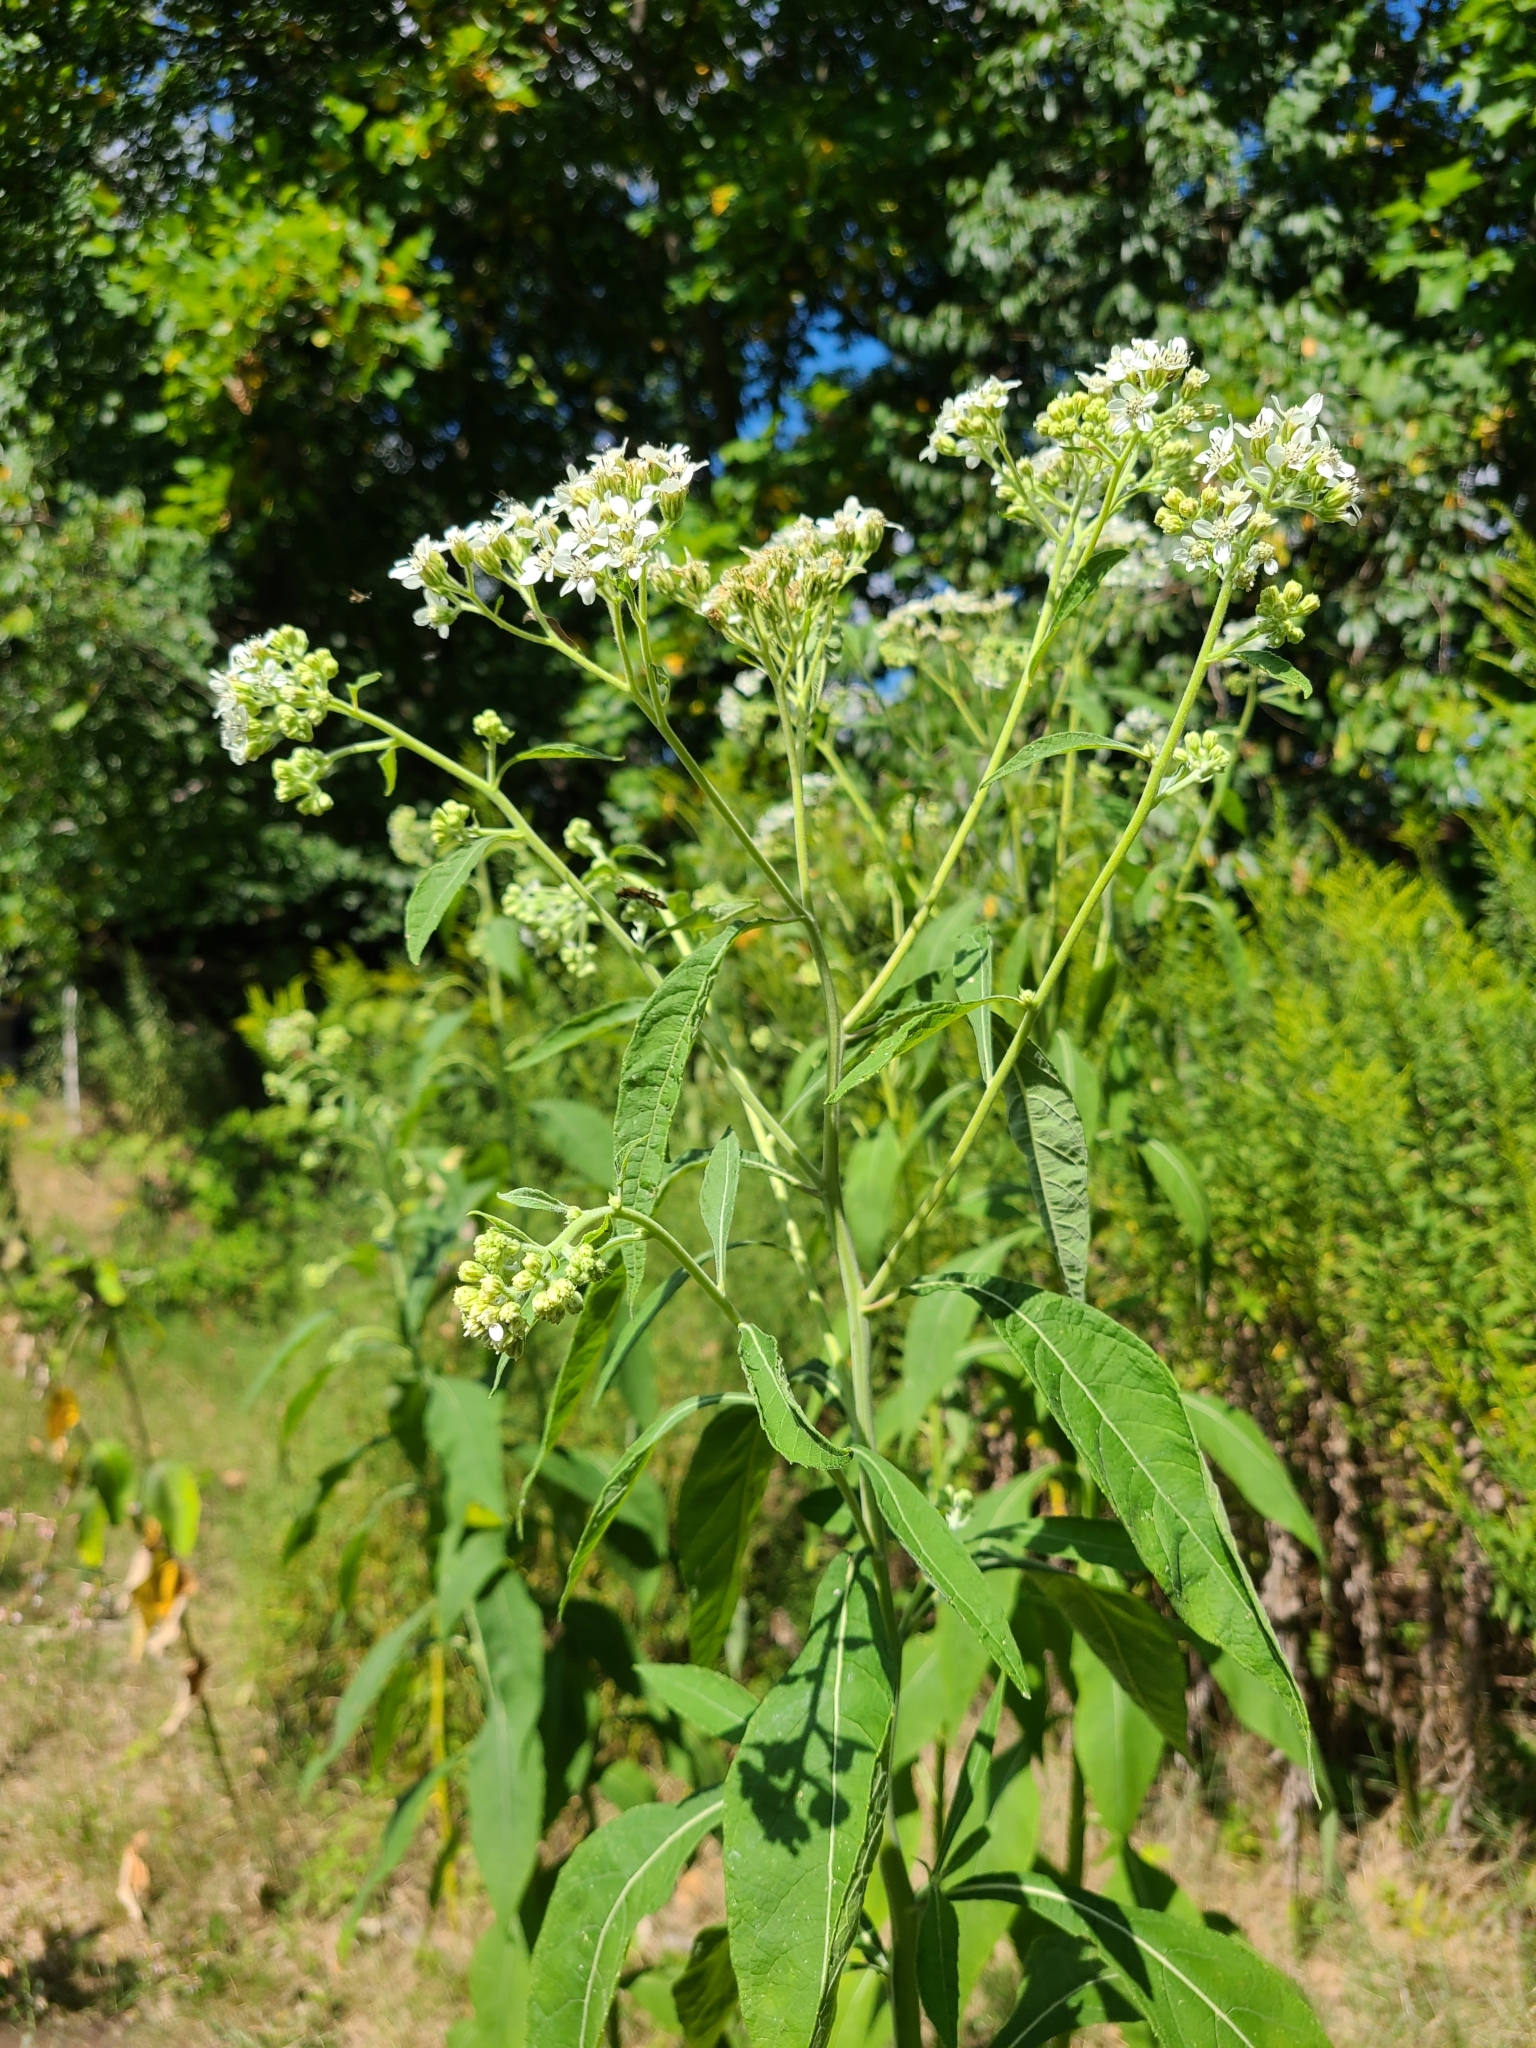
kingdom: Plantae
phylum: Tracheophyta
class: Magnoliopsida
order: Asterales
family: Asteraceae
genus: Verbesina
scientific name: Verbesina virginica
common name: Frostweed
